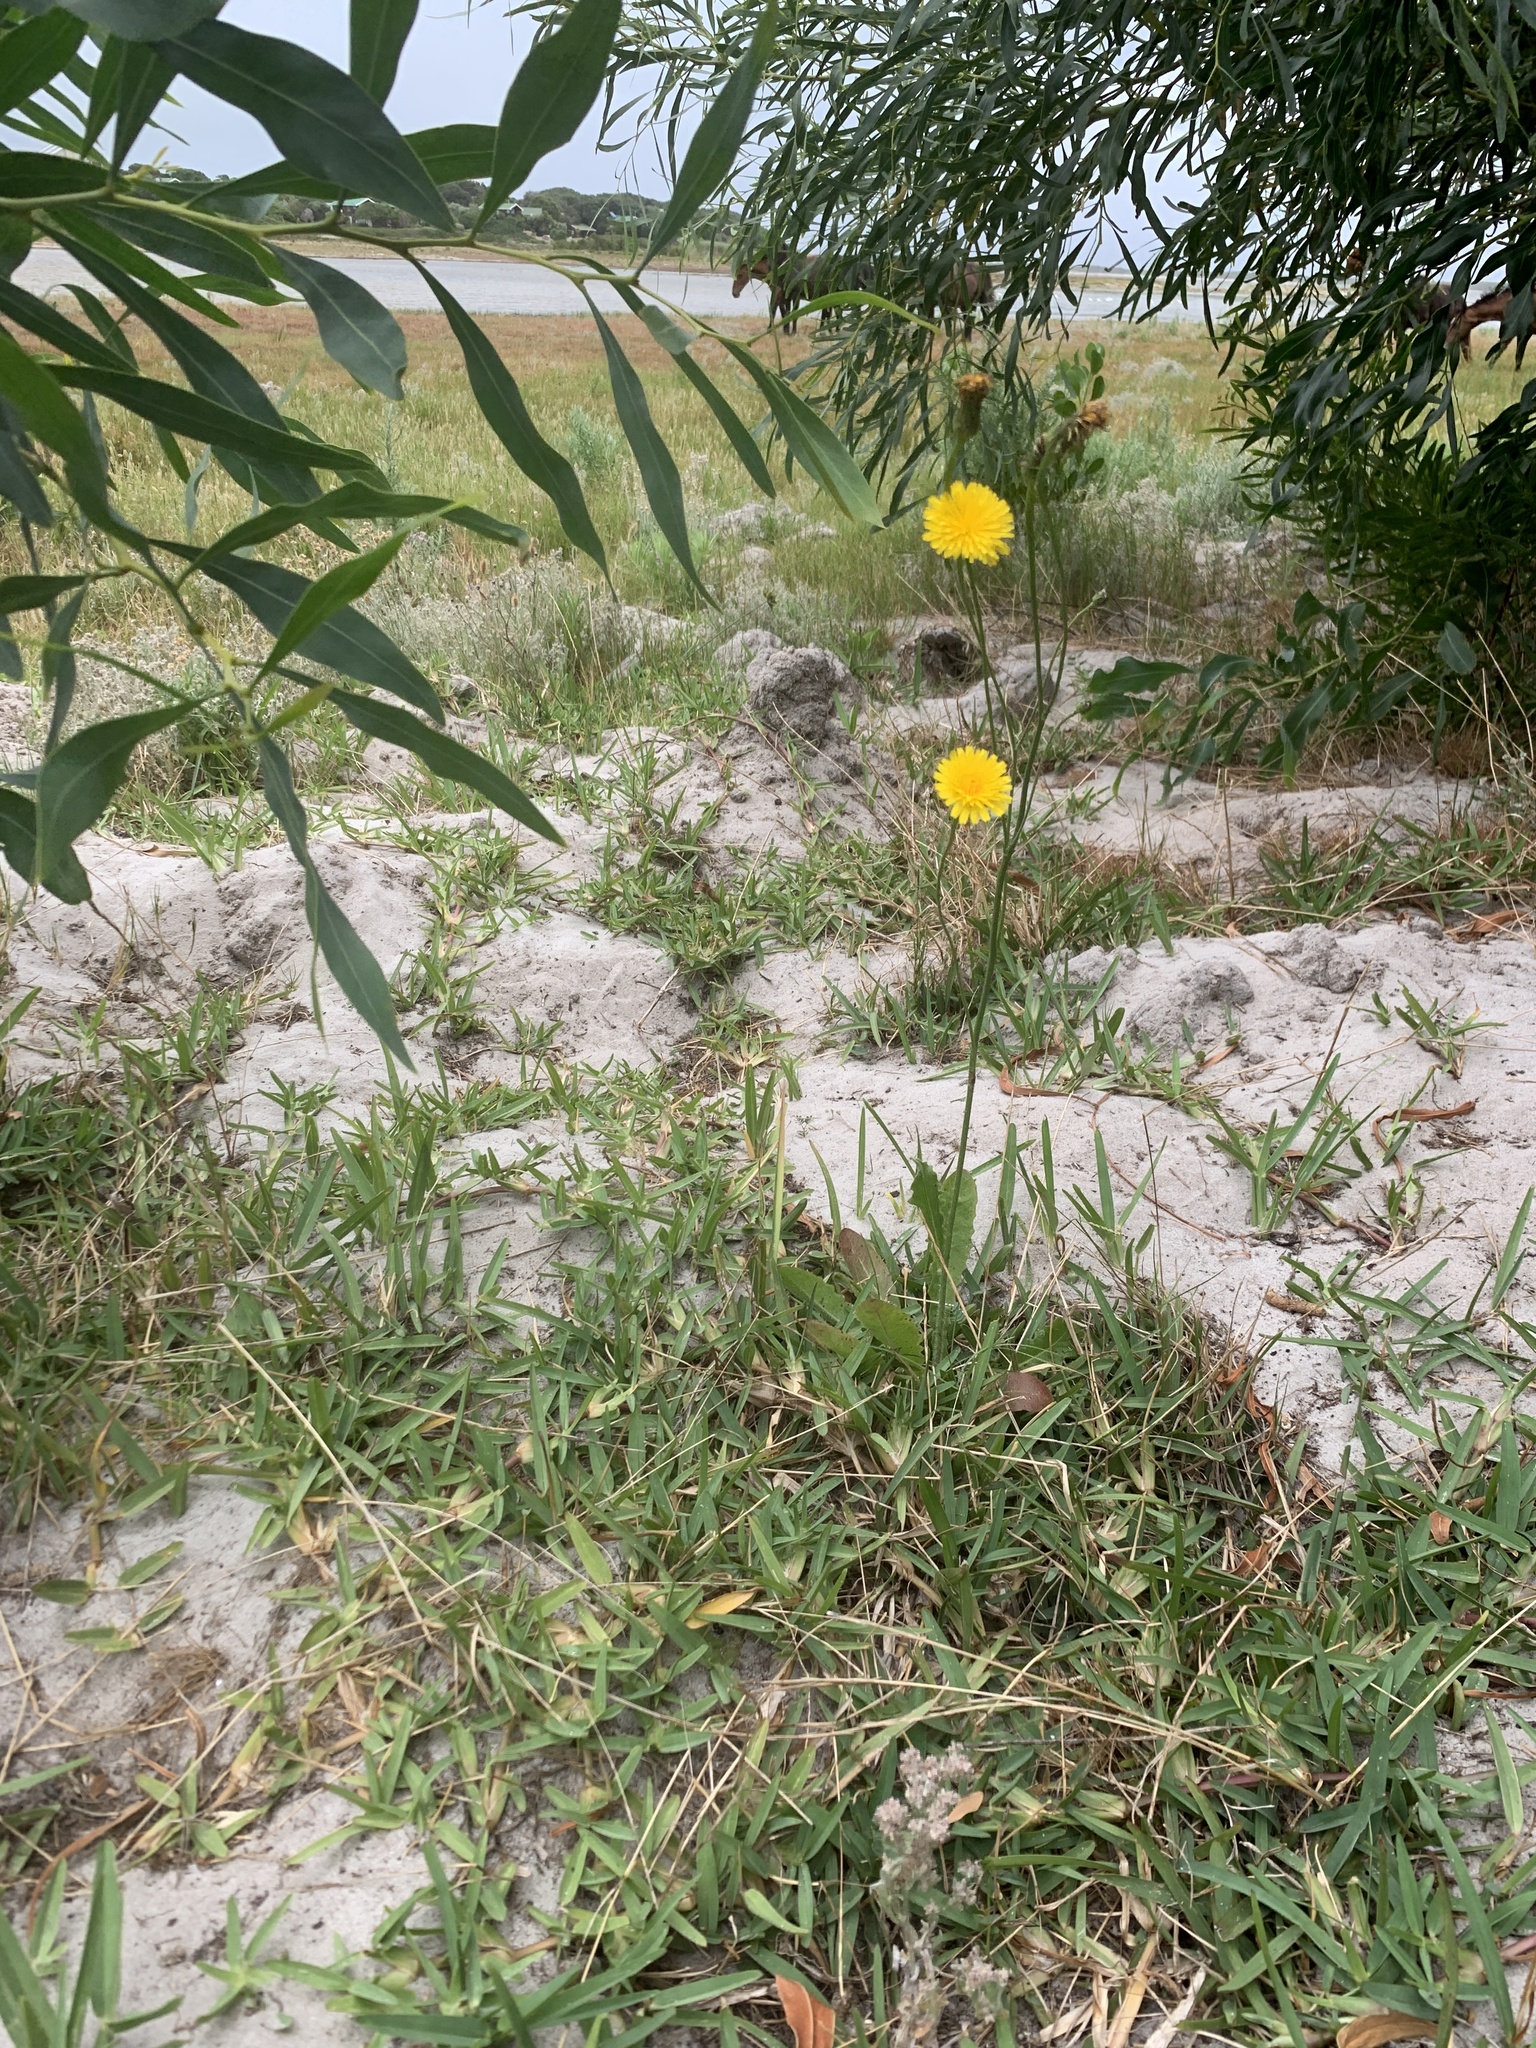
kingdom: Plantae
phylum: Tracheophyta
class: Magnoliopsida
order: Asterales
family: Asteraceae
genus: Hypochaeris
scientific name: Hypochaeris radicata
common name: Flatweed
